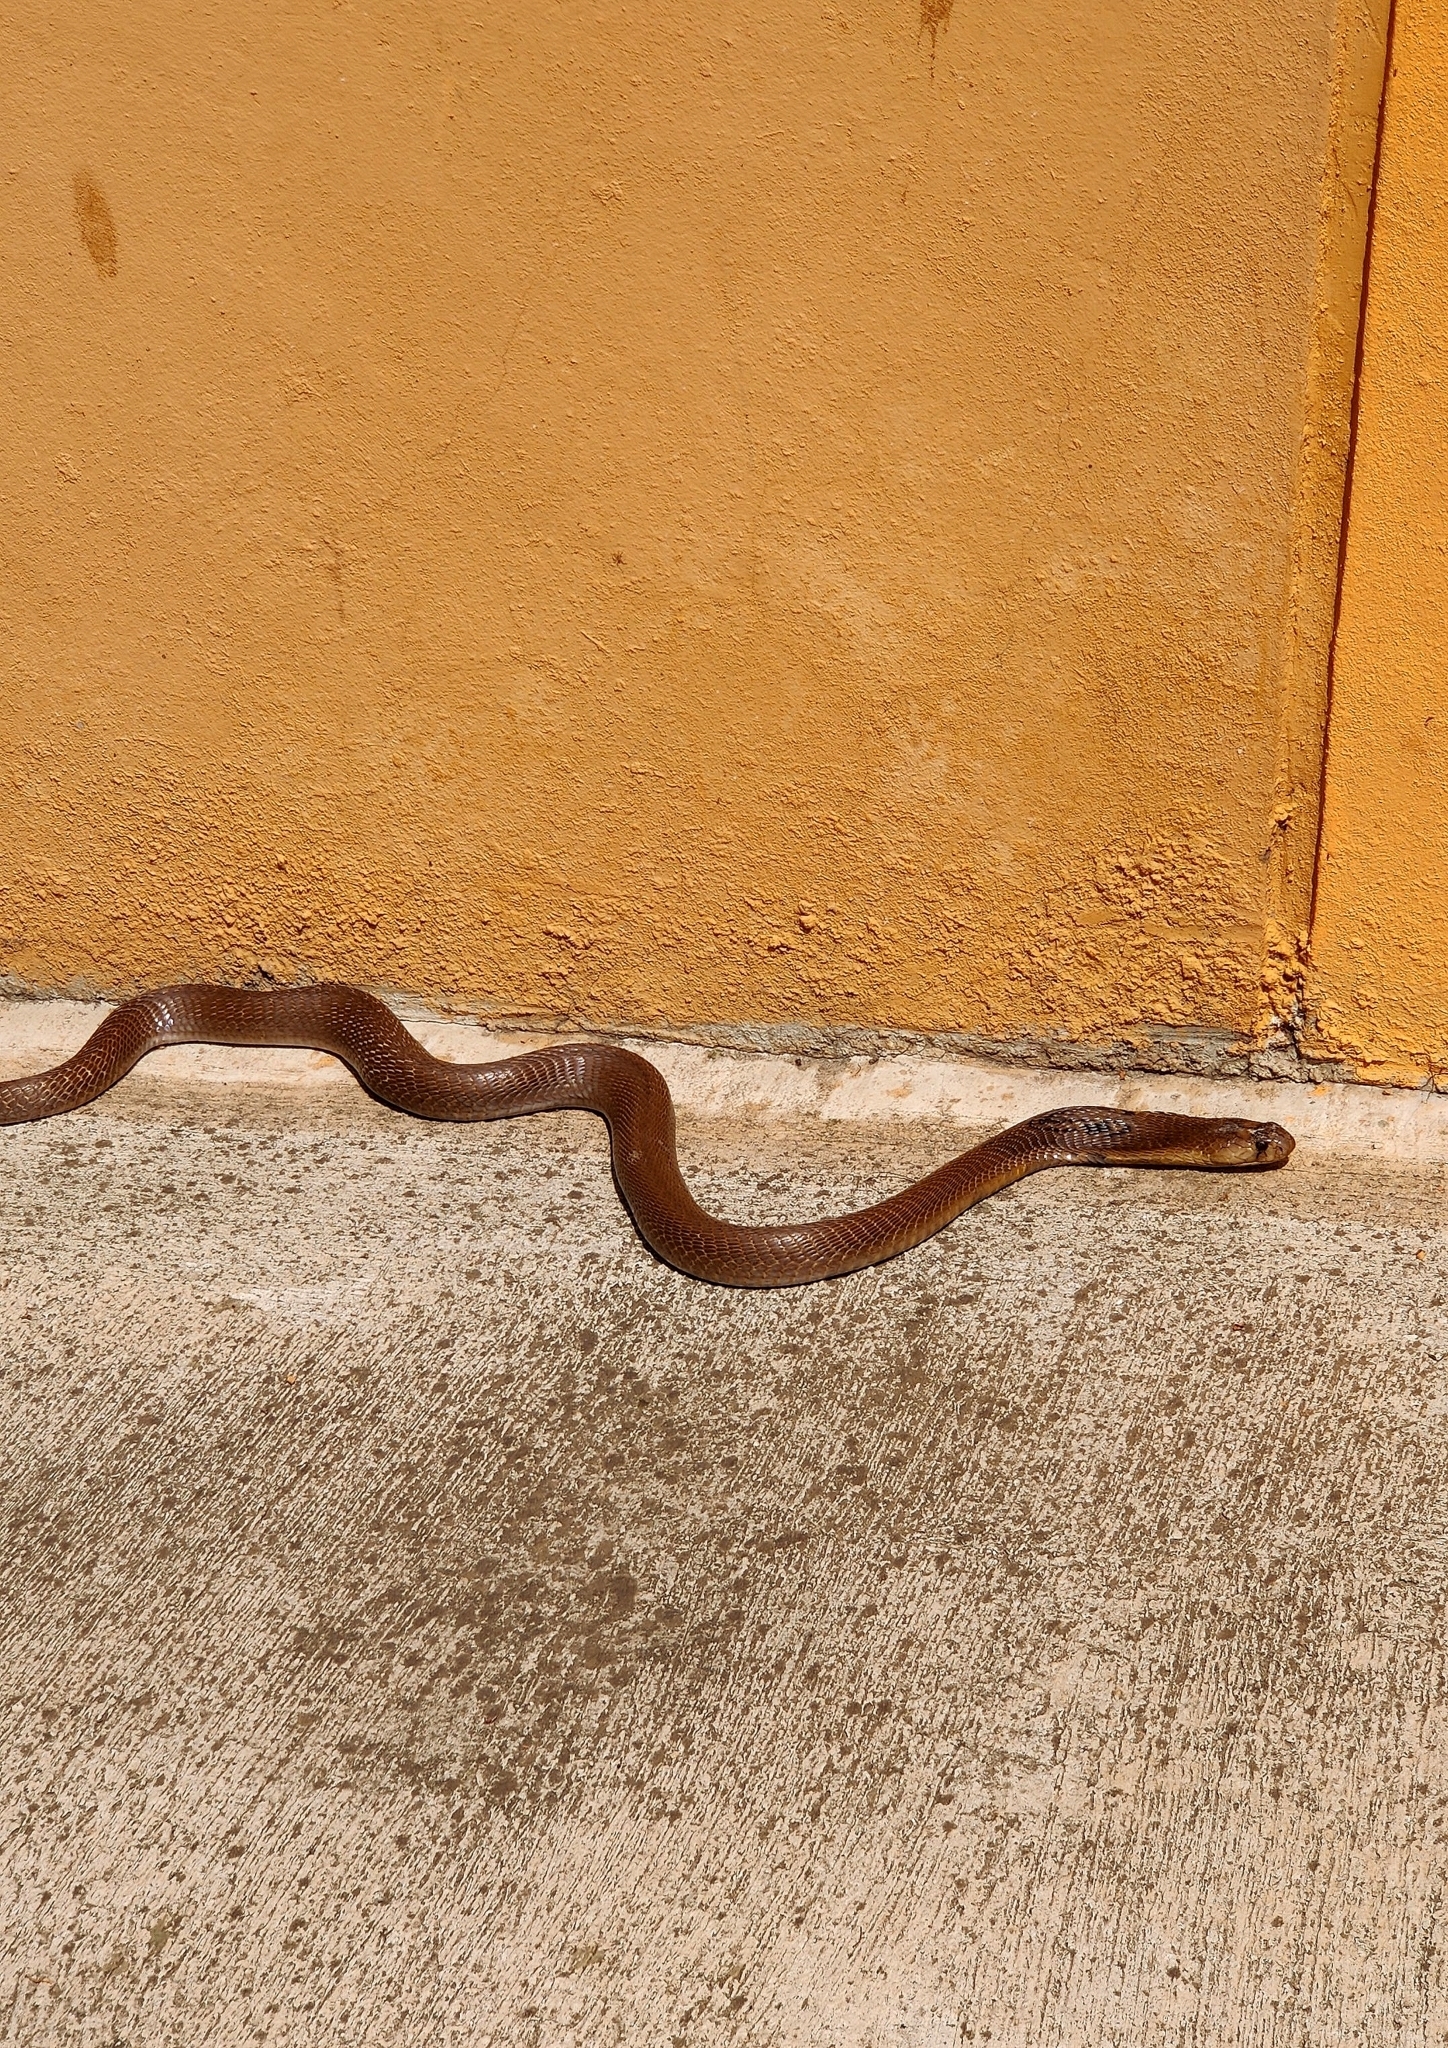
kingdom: Animalia
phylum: Chordata
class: Squamata
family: Elapidae
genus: Naja
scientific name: Naja naja
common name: Indian cobra
